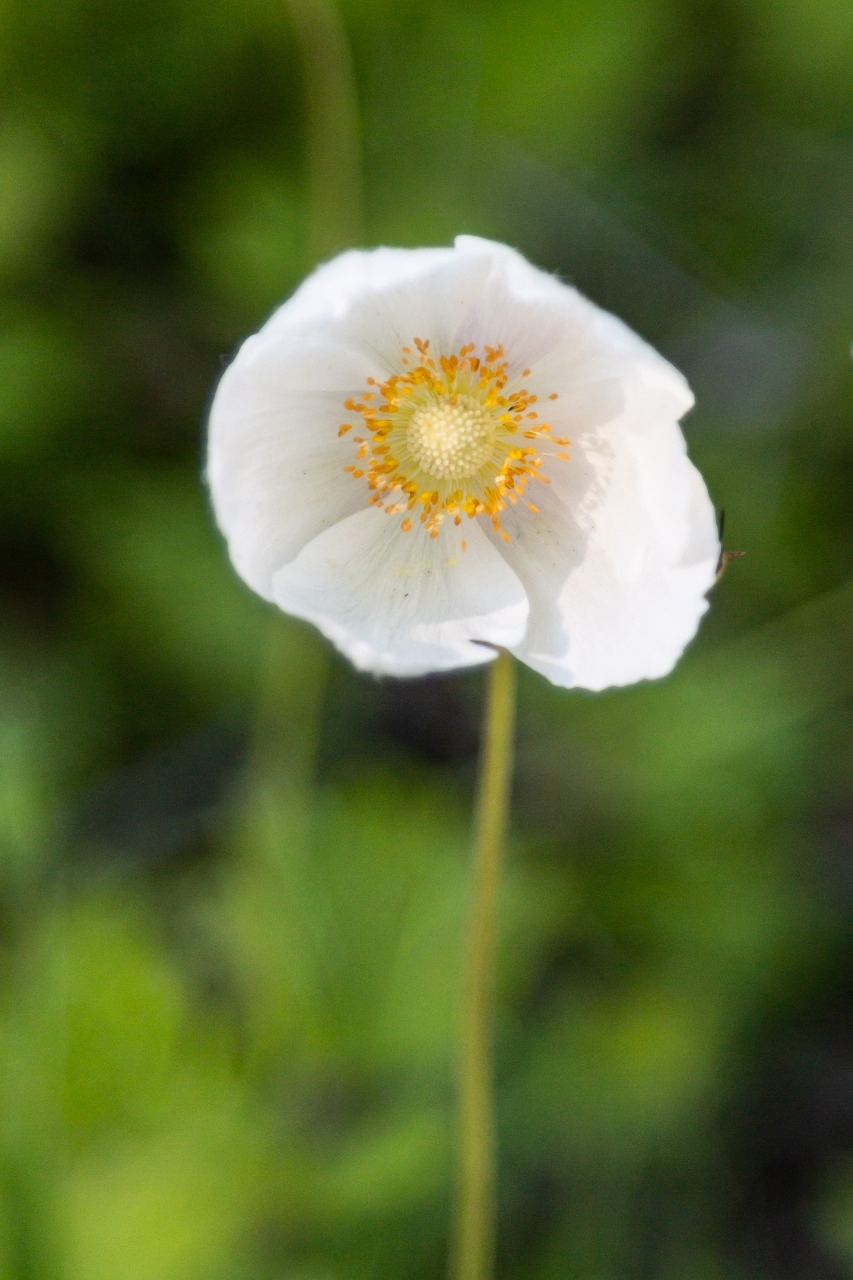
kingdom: Plantae
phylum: Tracheophyta
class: Magnoliopsida
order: Ranunculales
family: Ranunculaceae
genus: Anemone
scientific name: Anemone sylvestris
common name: Snowdrop anemone
